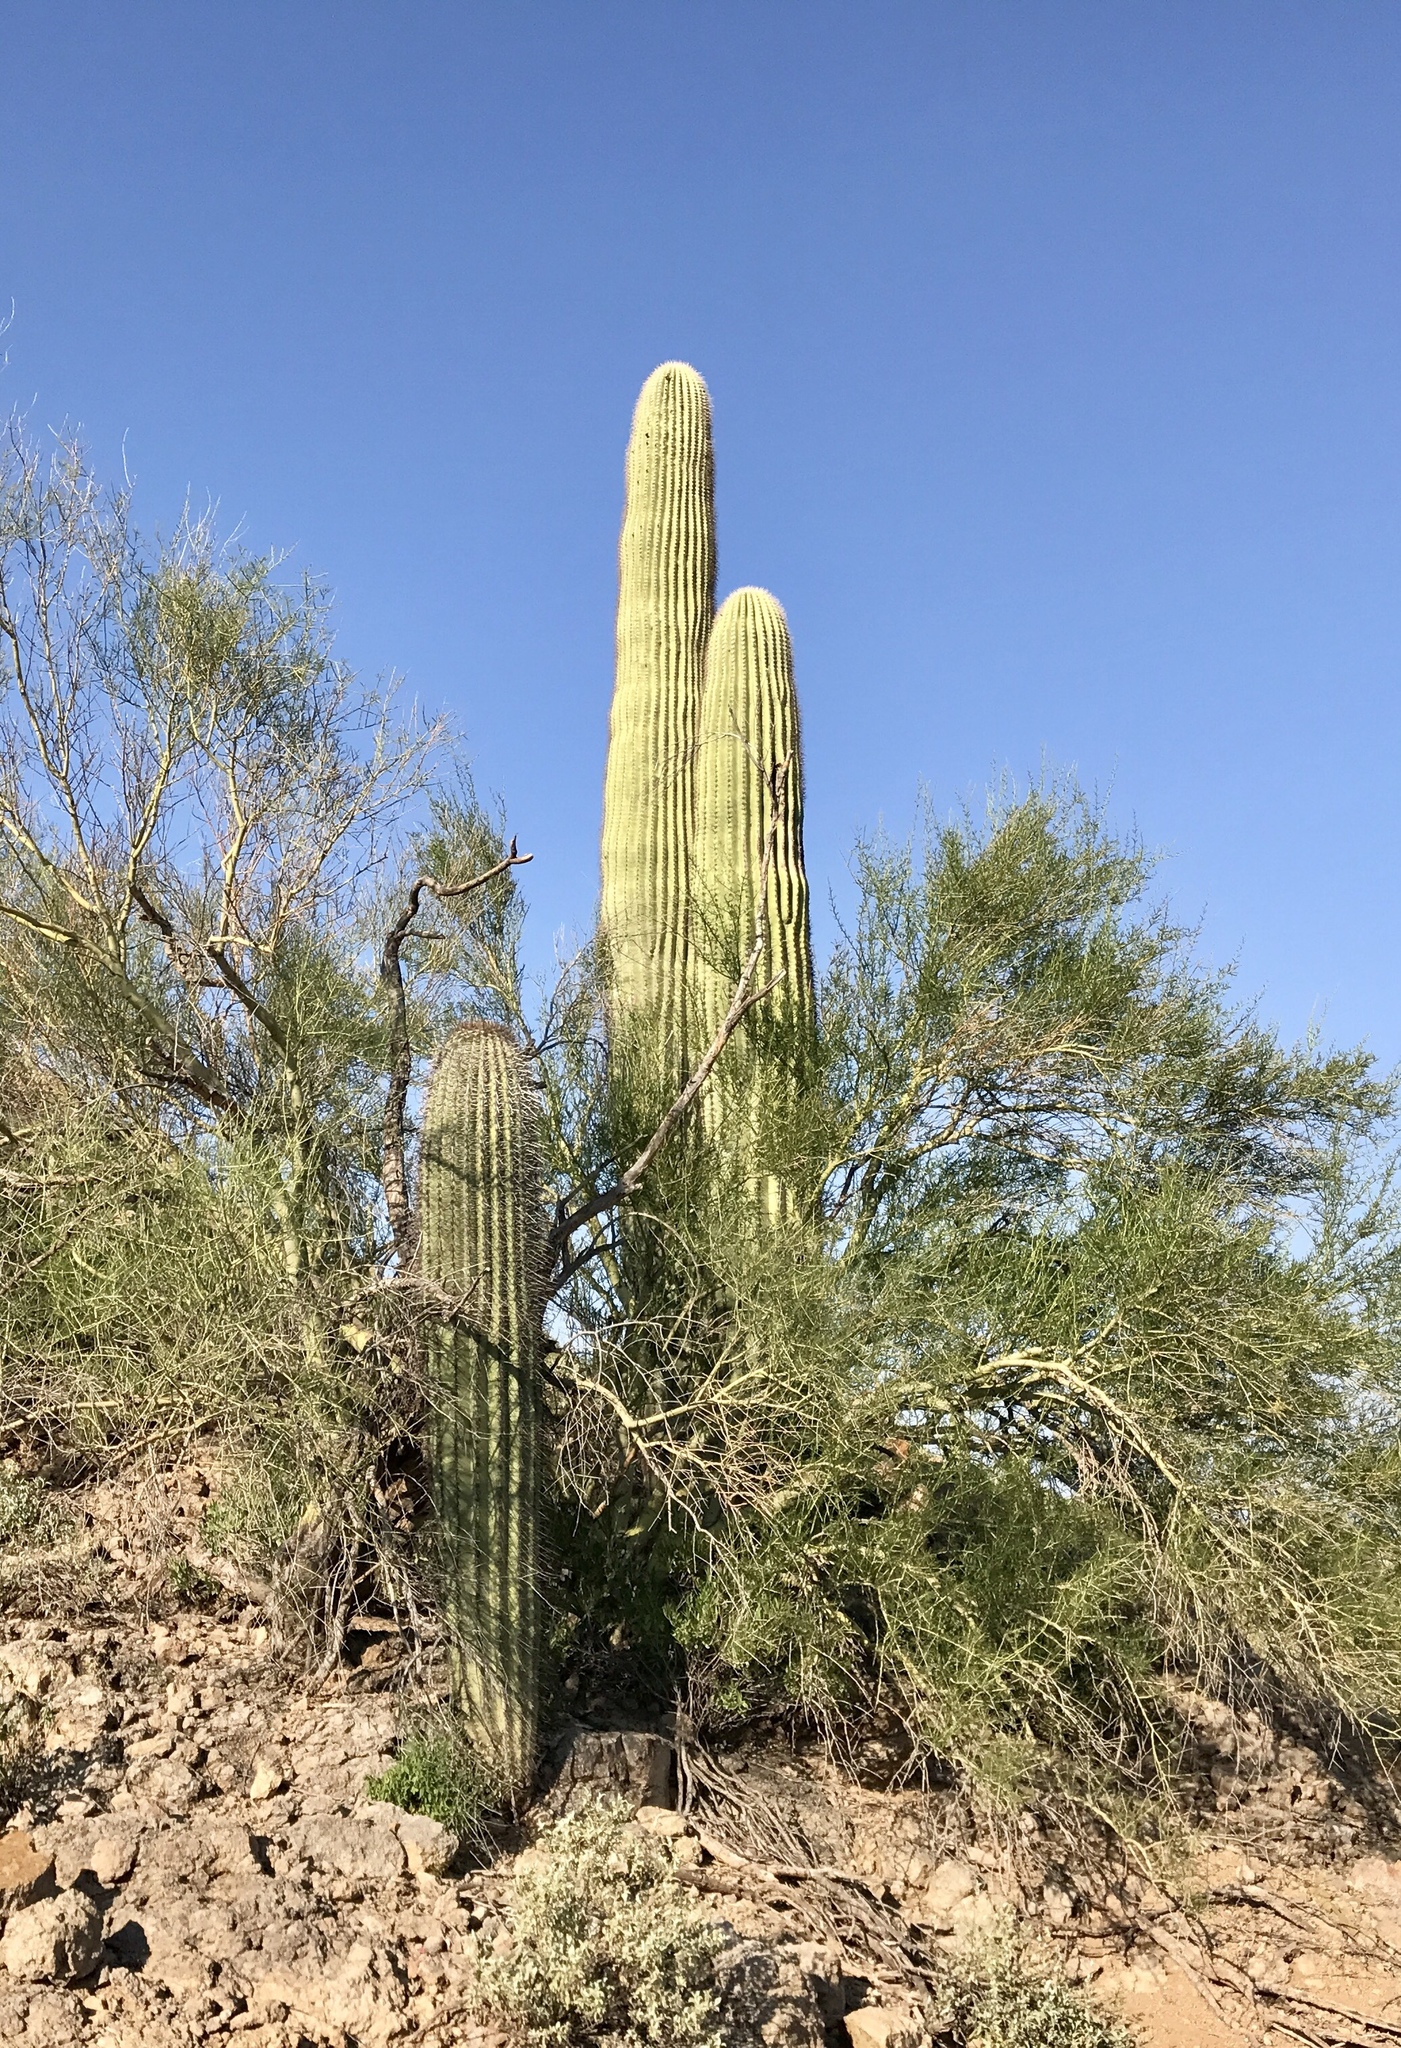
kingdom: Plantae
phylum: Tracheophyta
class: Magnoliopsida
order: Caryophyllales
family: Cactaceae
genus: Carnegiea
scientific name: Carnegiea gigantea
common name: Saguaro
